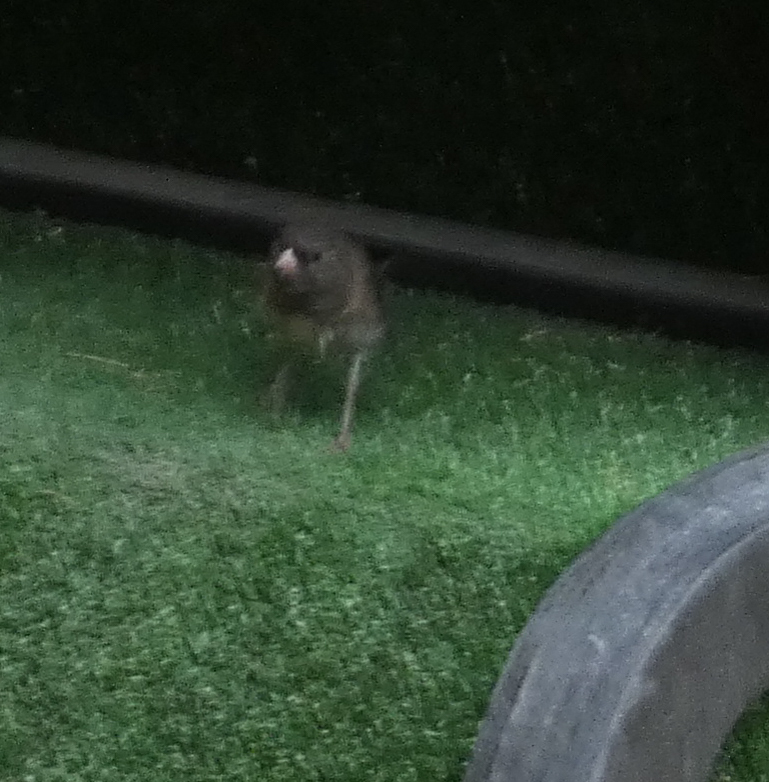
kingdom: Animalia
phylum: Chordata
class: Aves
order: Passeriformes
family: Passerellidae
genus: Junco
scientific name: Junco hyemalis
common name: Dark-eyed junco
